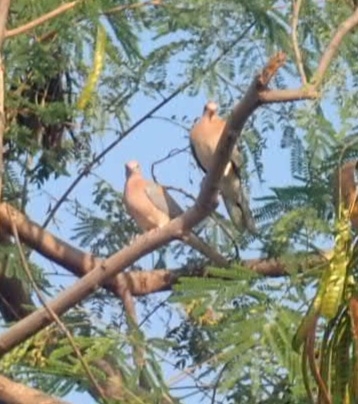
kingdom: Animalia
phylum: Chordata
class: Aves
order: Columbiformes
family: Columbidae
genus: Spilopelia
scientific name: Spilopelia senegalensis
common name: Laughing dove
